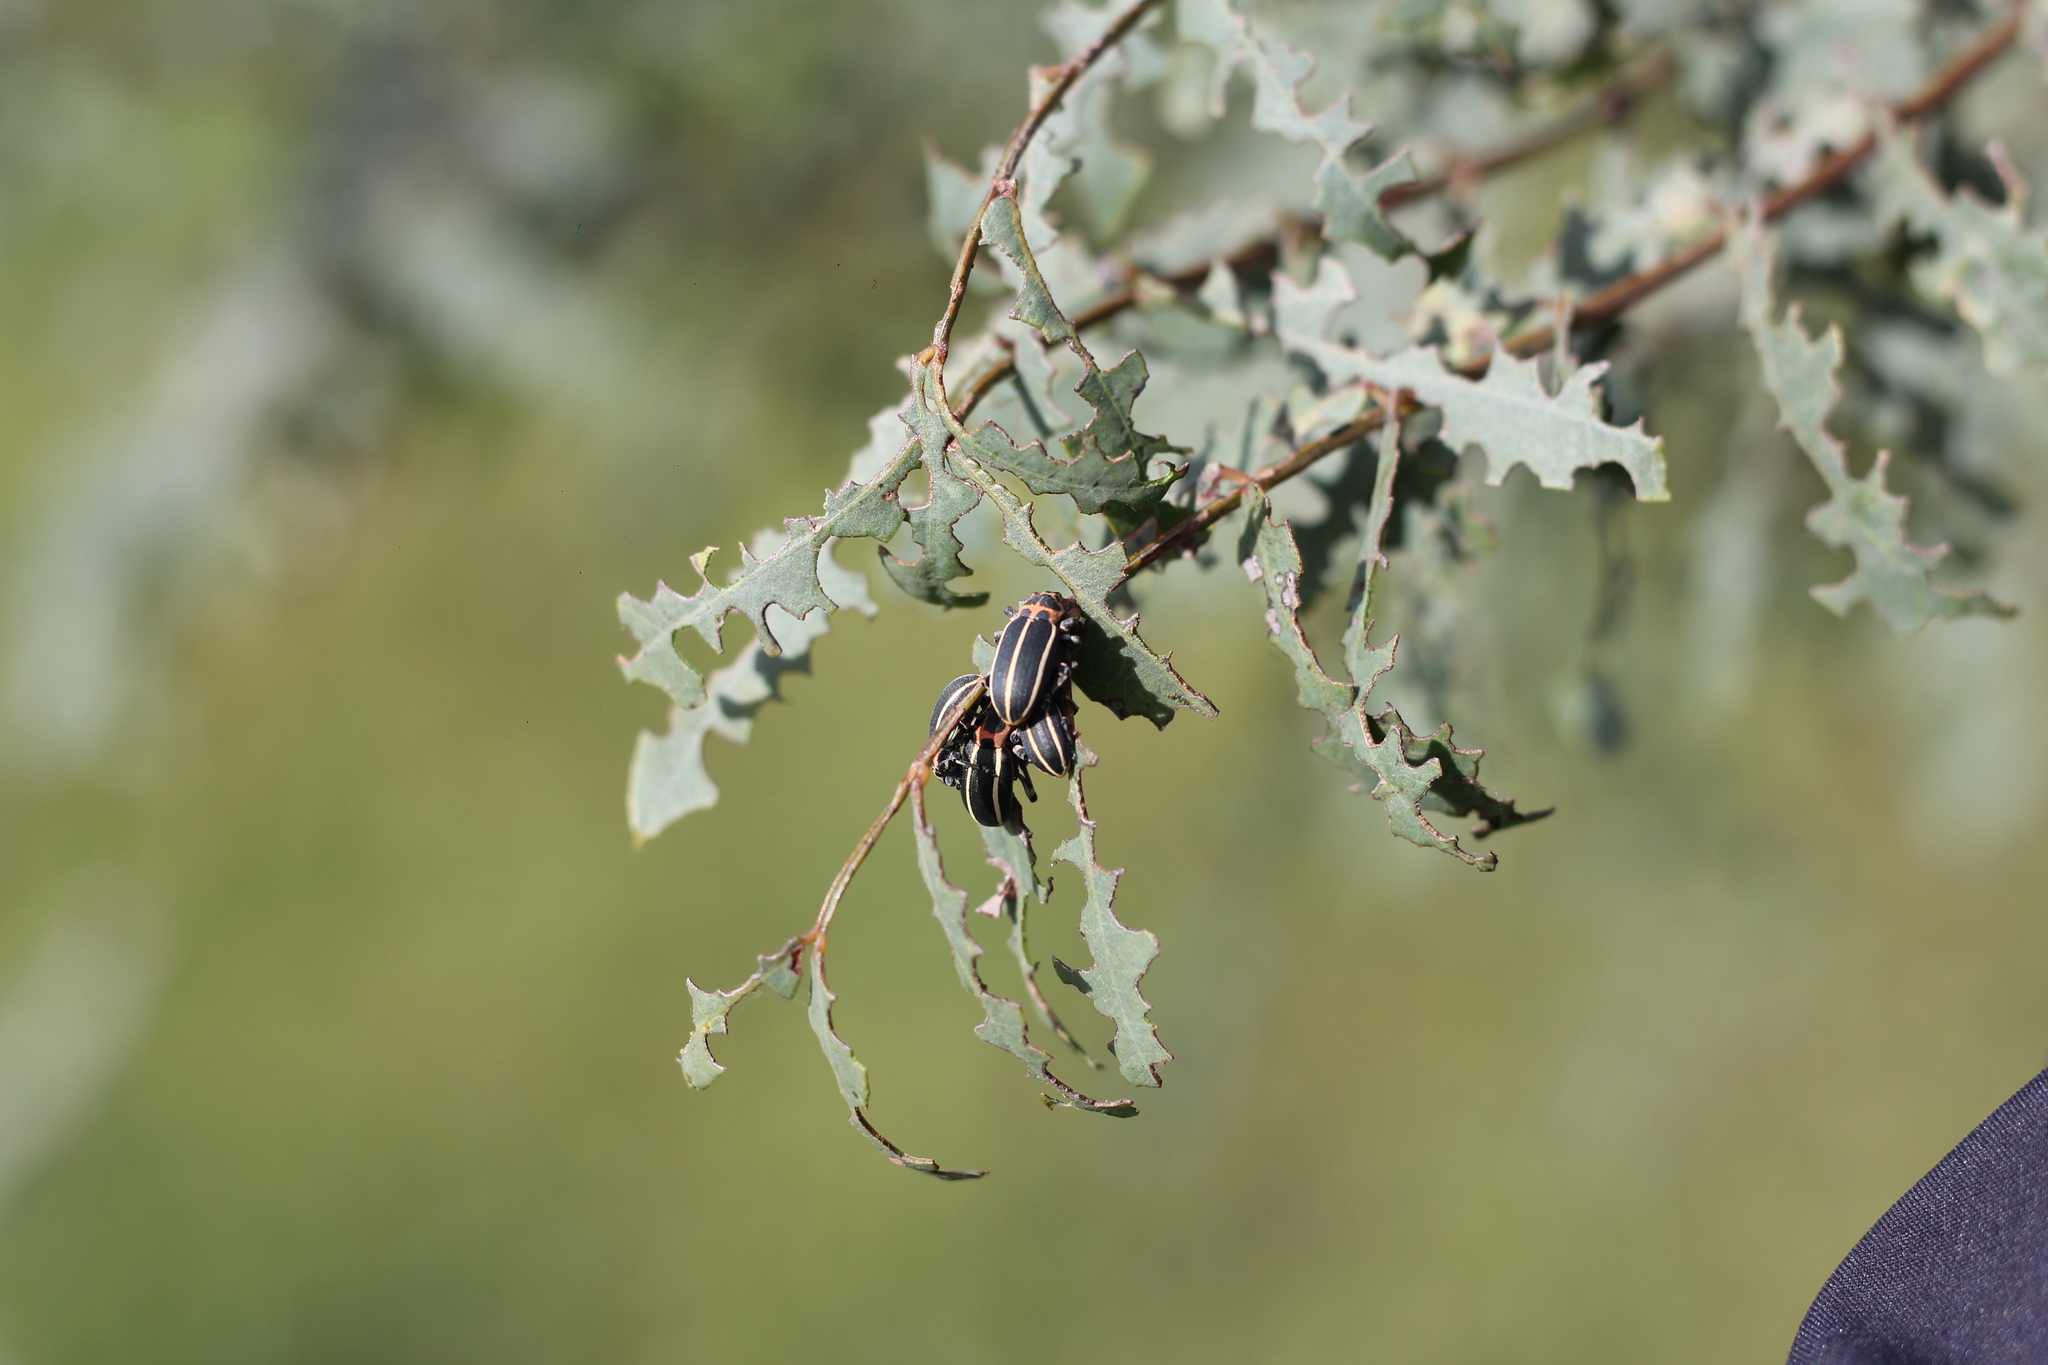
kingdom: Animalia
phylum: Arthropoda
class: Insecta
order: Coleoptera
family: Curculionidae
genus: Eudiagogus
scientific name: Eudiagogus episcopalis
